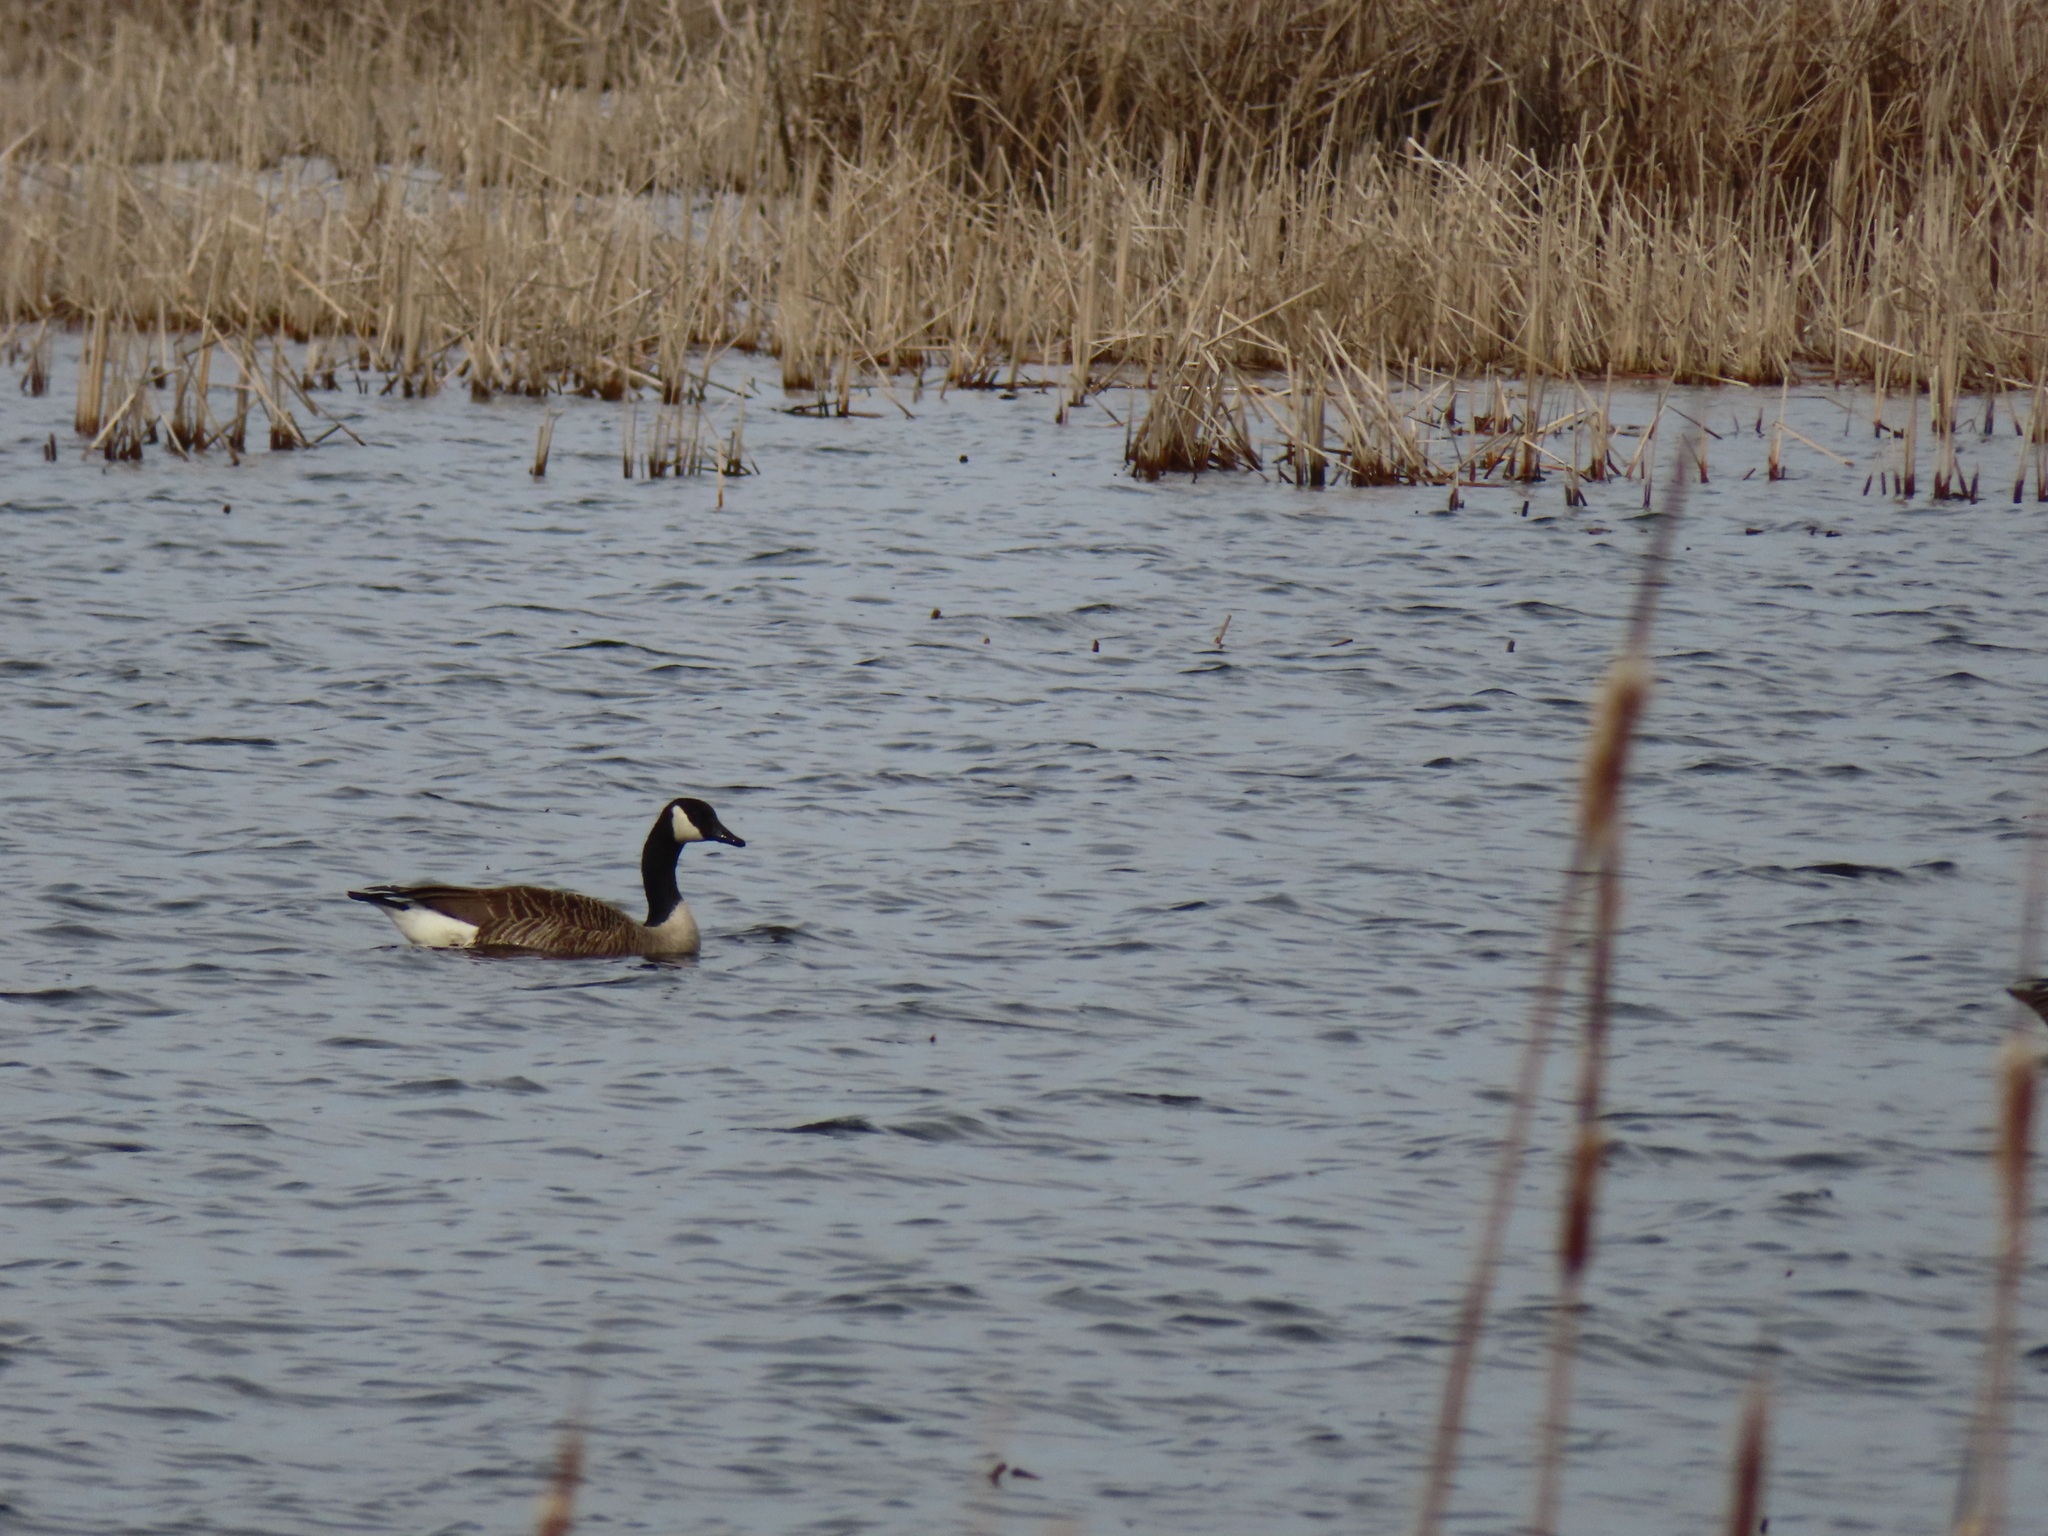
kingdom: Animalia
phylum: Chordata
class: Aves
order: Anseriformes
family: Anatidae
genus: Branta
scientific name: Branta canadensis
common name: Canada goose
